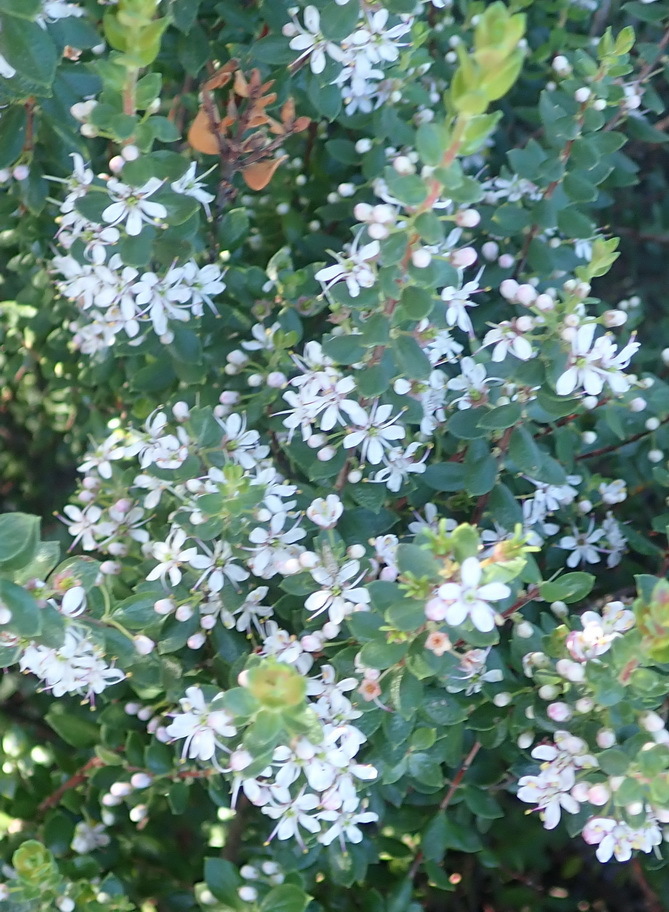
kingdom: Plantae
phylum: Tracheophyta
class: Magnoliopsida
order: Sapindales
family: Rutaceae
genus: Agathosma
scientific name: Agathosma ovata
